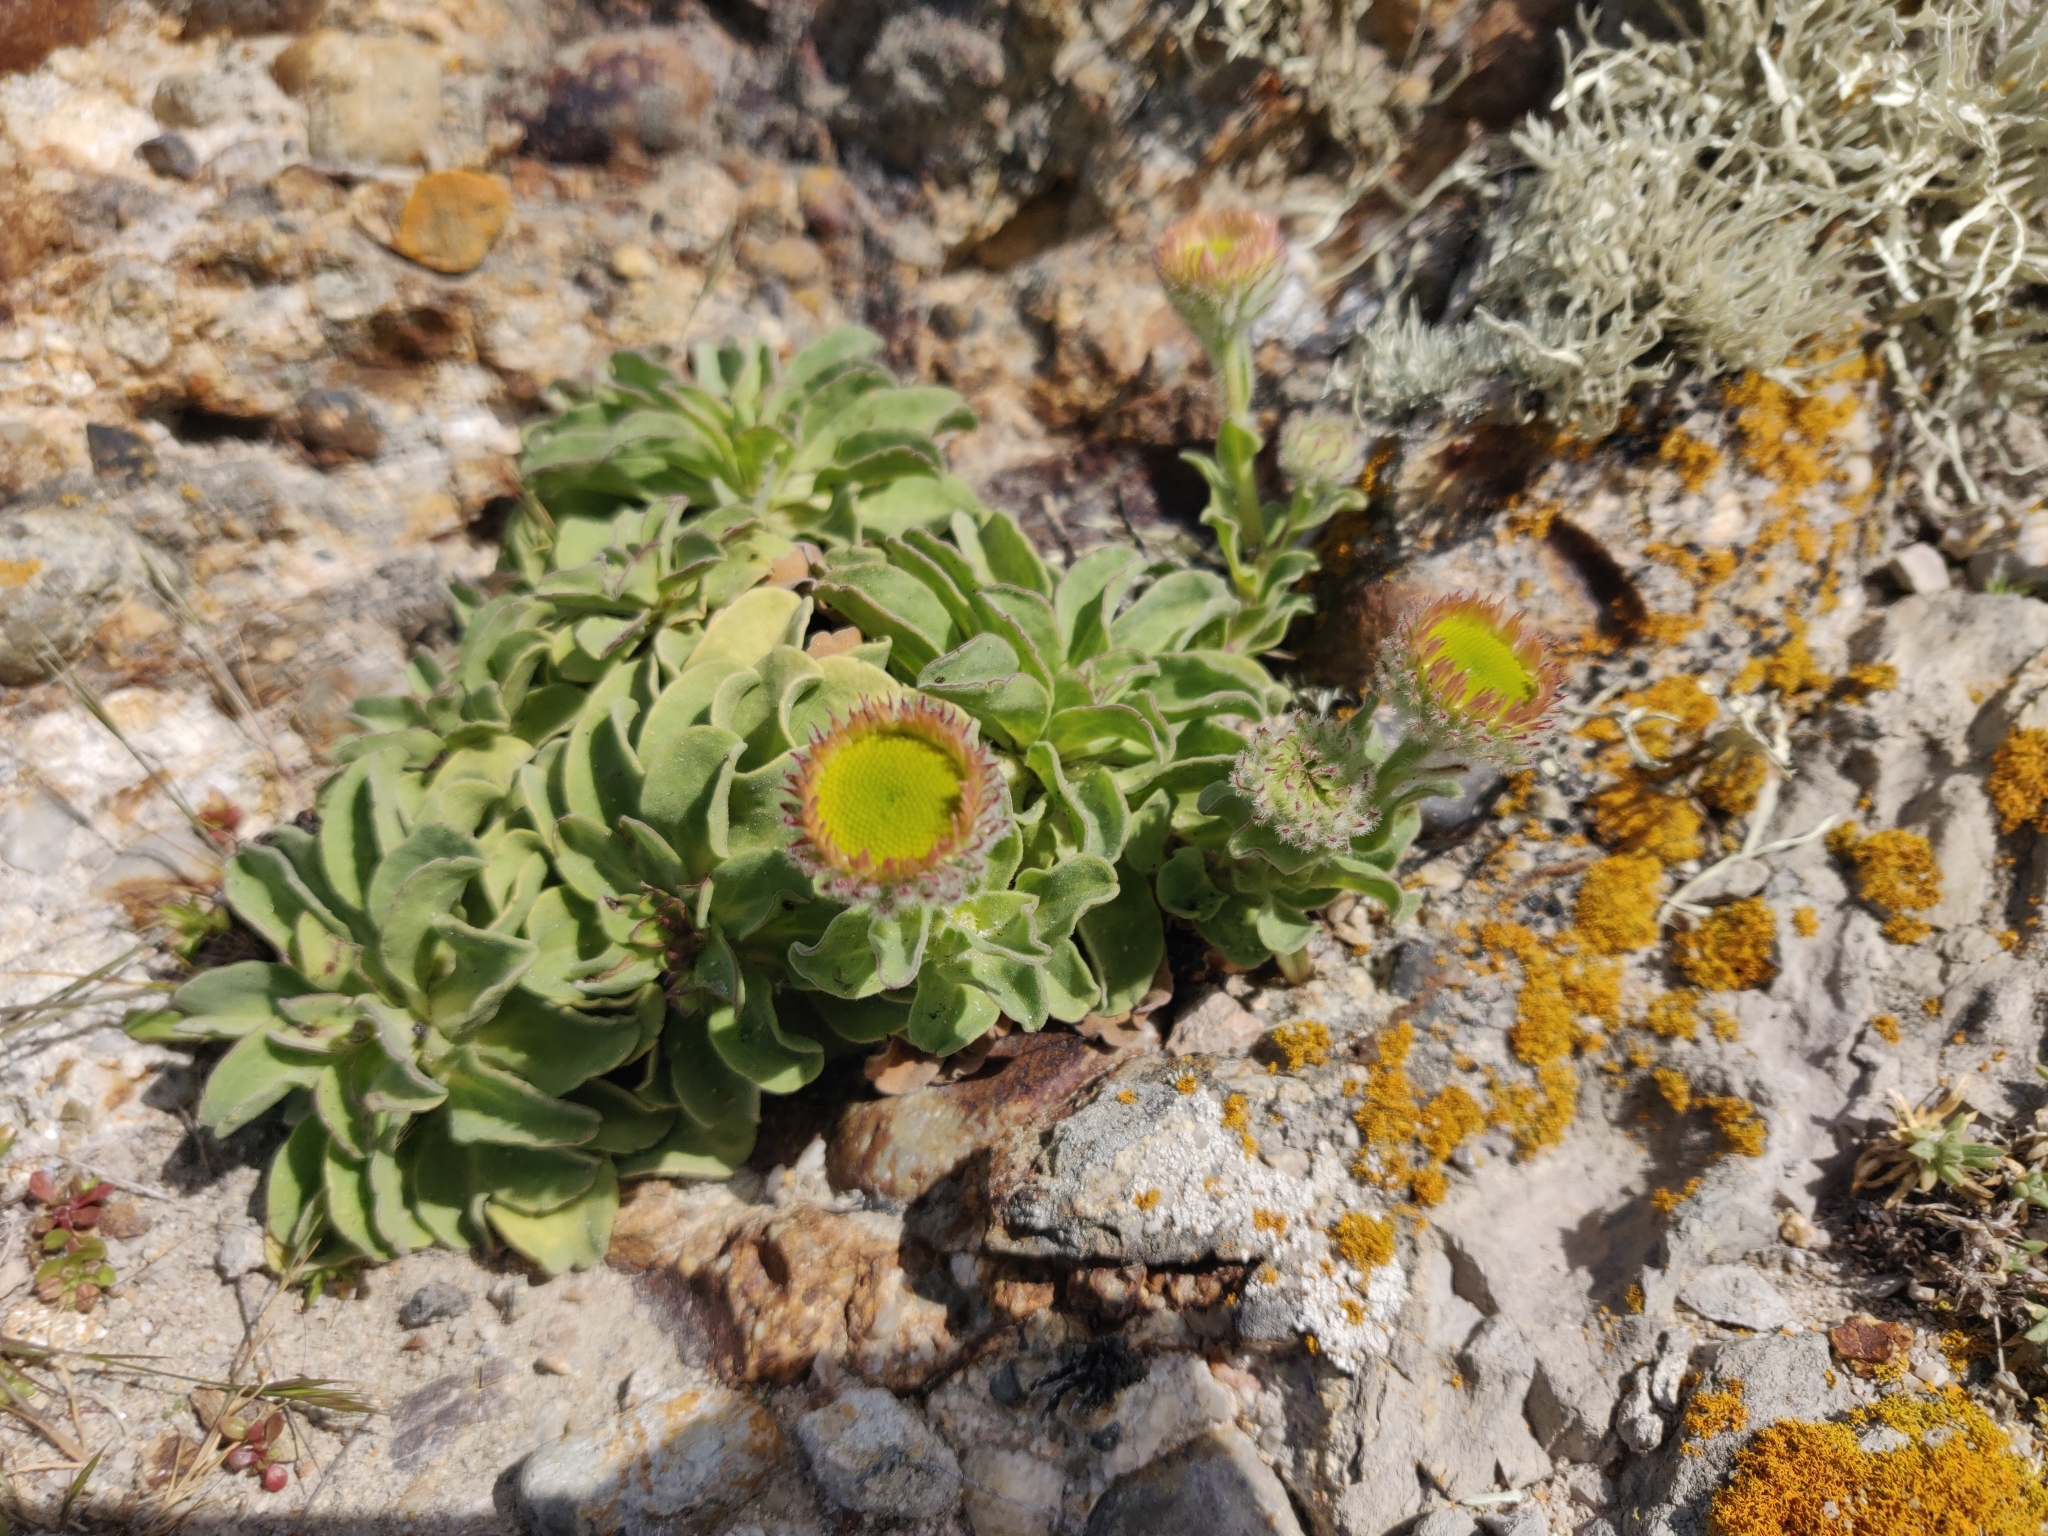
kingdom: Plantae
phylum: Tracheophyta
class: Magnoliopsida
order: Asterales
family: Asteraceae
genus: Erigeron
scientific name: Erigeron glaucus
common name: Seaside daisy
